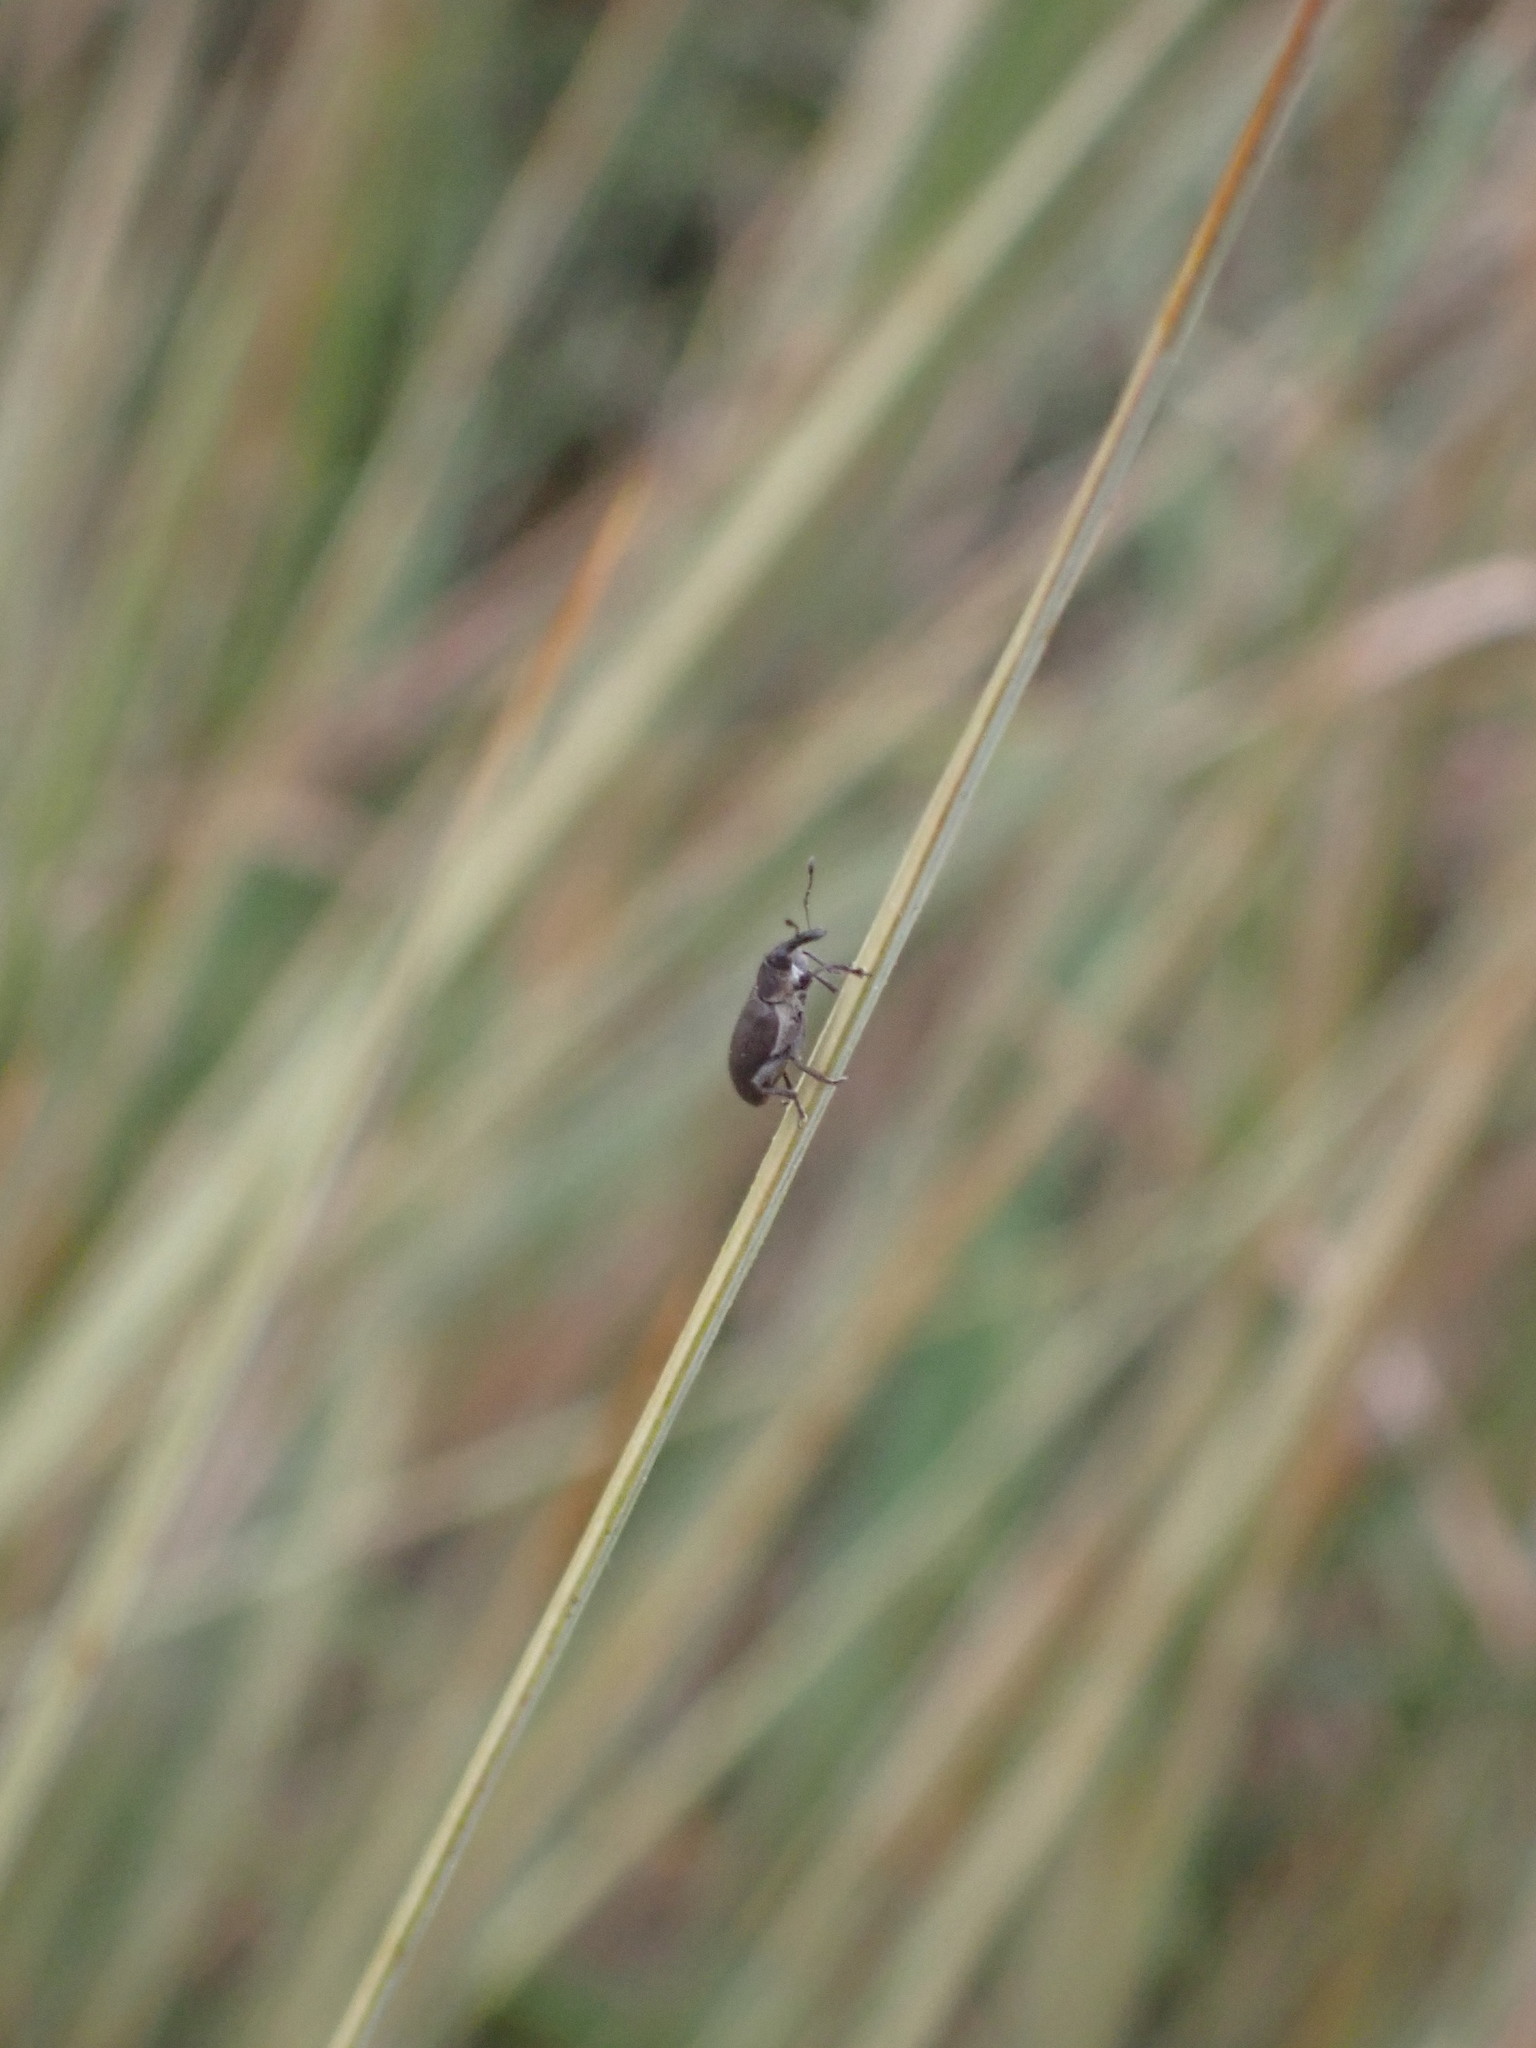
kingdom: Animalia
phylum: Arthropoda
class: Insecta
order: Coleoptera
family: Curculionidae
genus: Eugnomus
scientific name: Eugnomus durvillei
